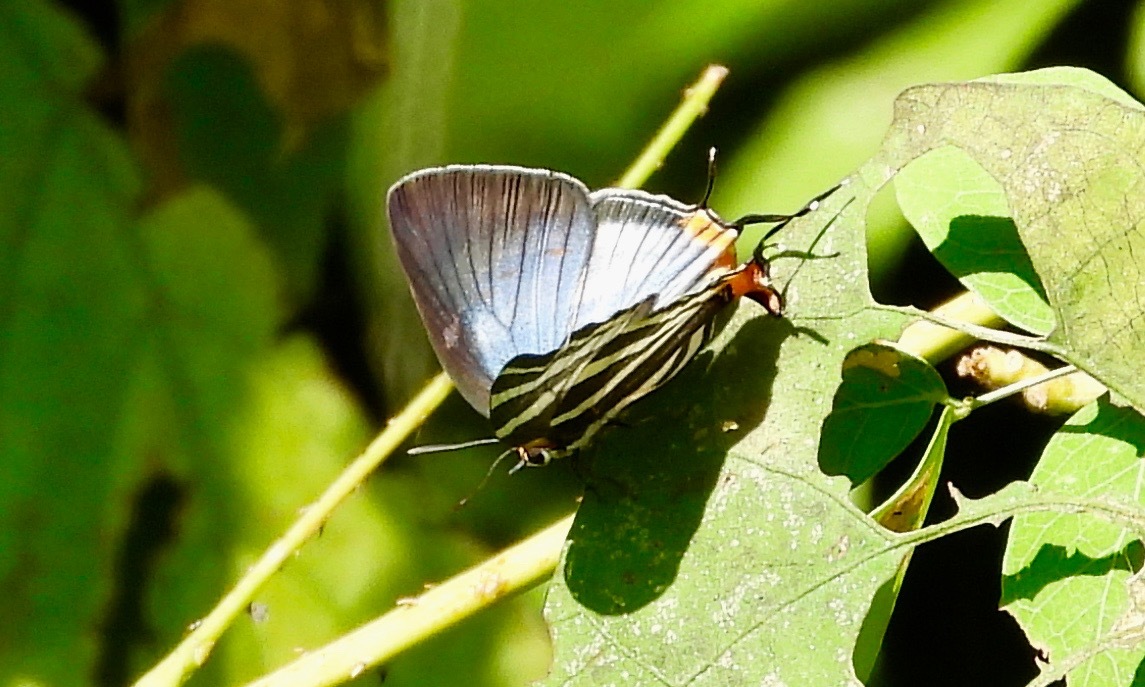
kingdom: Animalia
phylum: Arthropoda
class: Insecta
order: Lepidoptera
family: Lycaenidae
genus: Thecla
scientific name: Thecla bathildis
